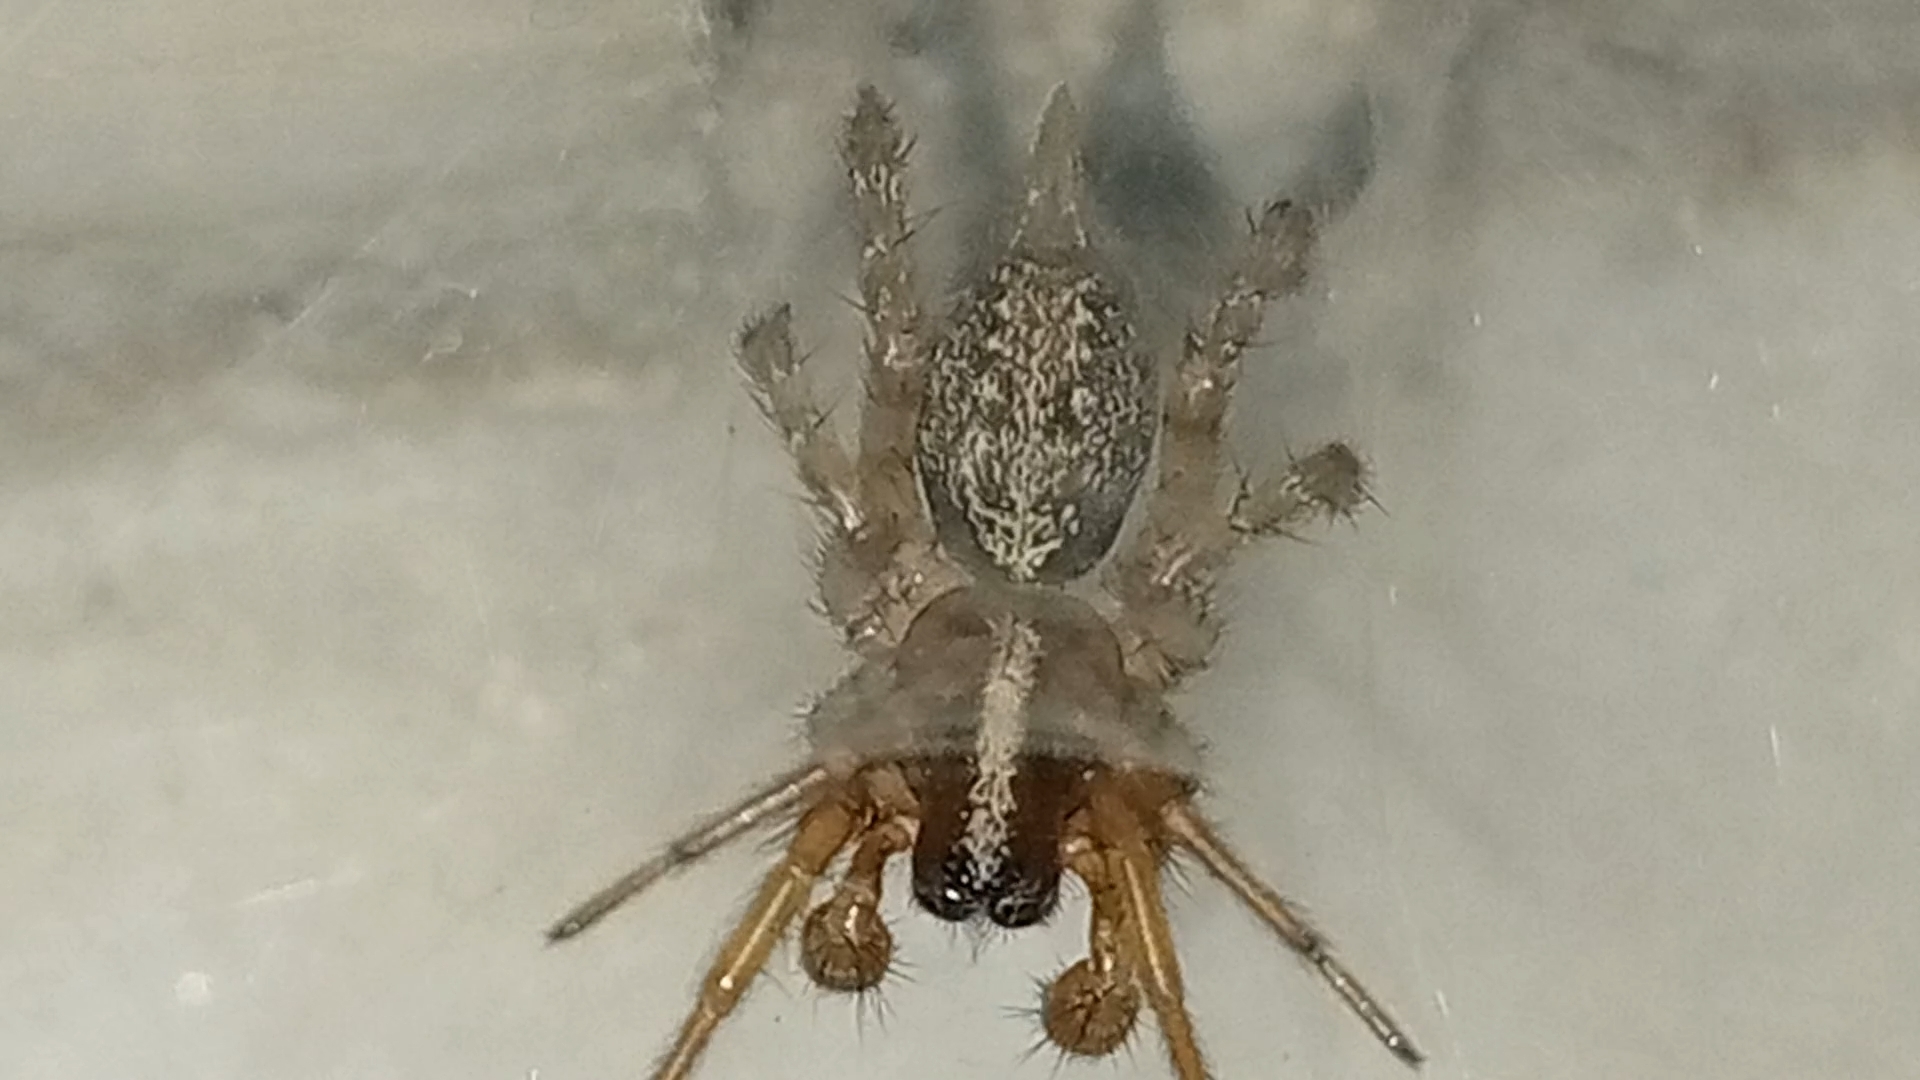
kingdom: Animalia
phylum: Arthropoda
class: Arachnida
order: Araneae
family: Agelenidae
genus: Maimuna
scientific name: Maimuna vestita
